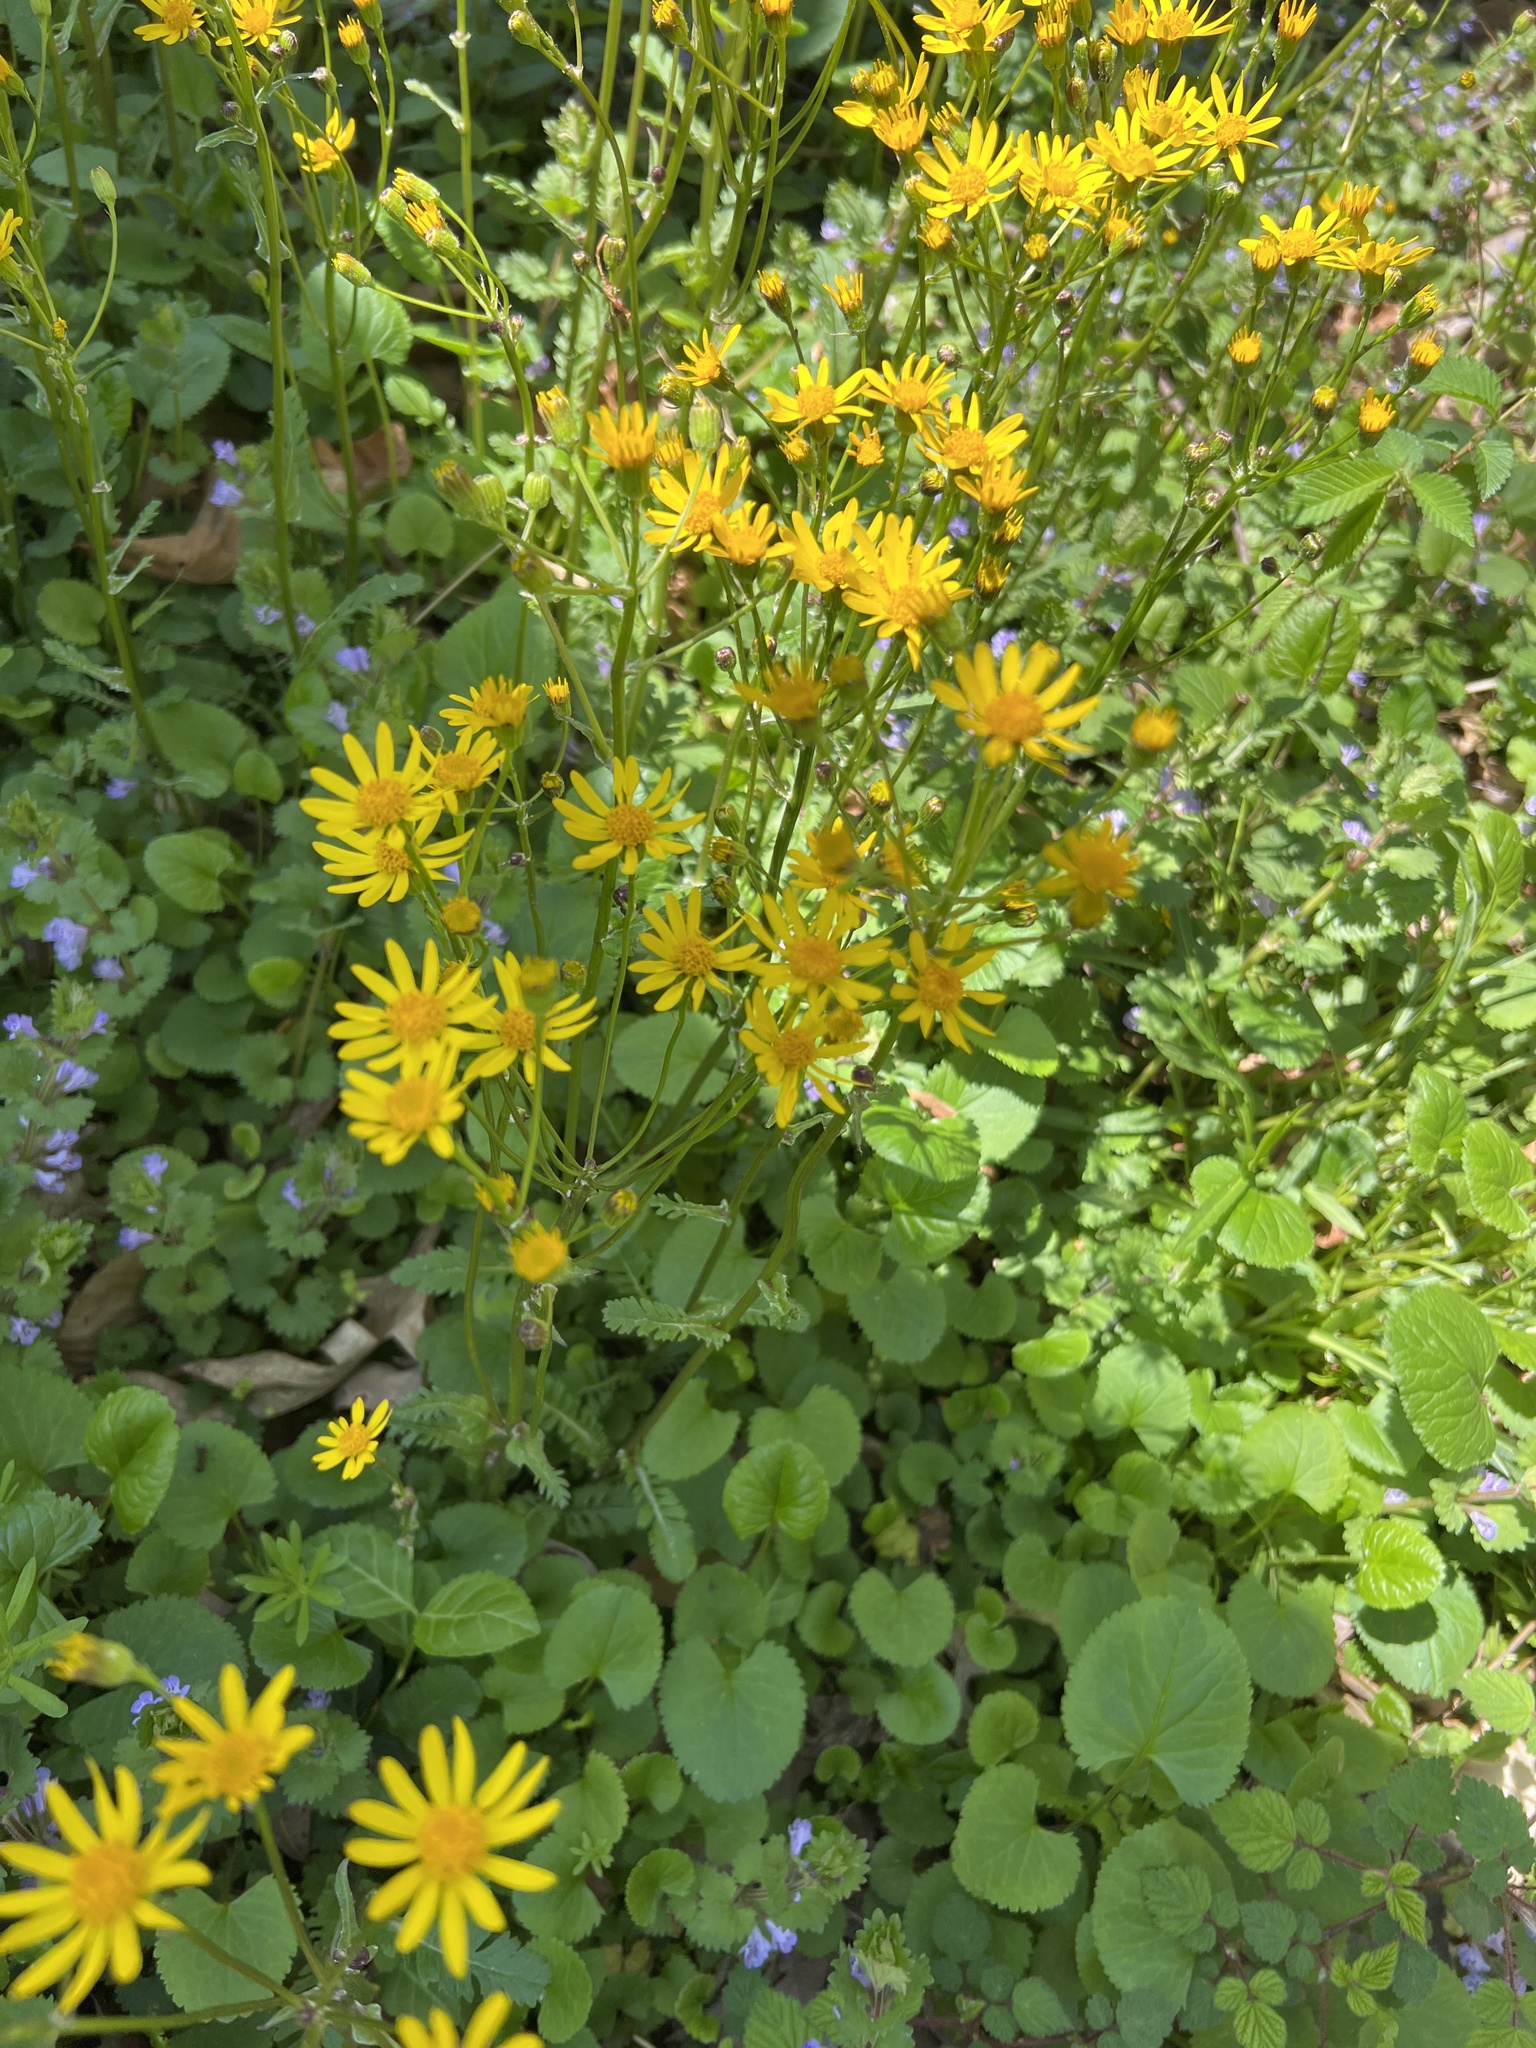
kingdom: Plantae
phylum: Tracheophyta
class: Magnoliopsida
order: Asterales
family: Asteraceae
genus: Packera
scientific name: Packera aurea
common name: Golden groundsel
